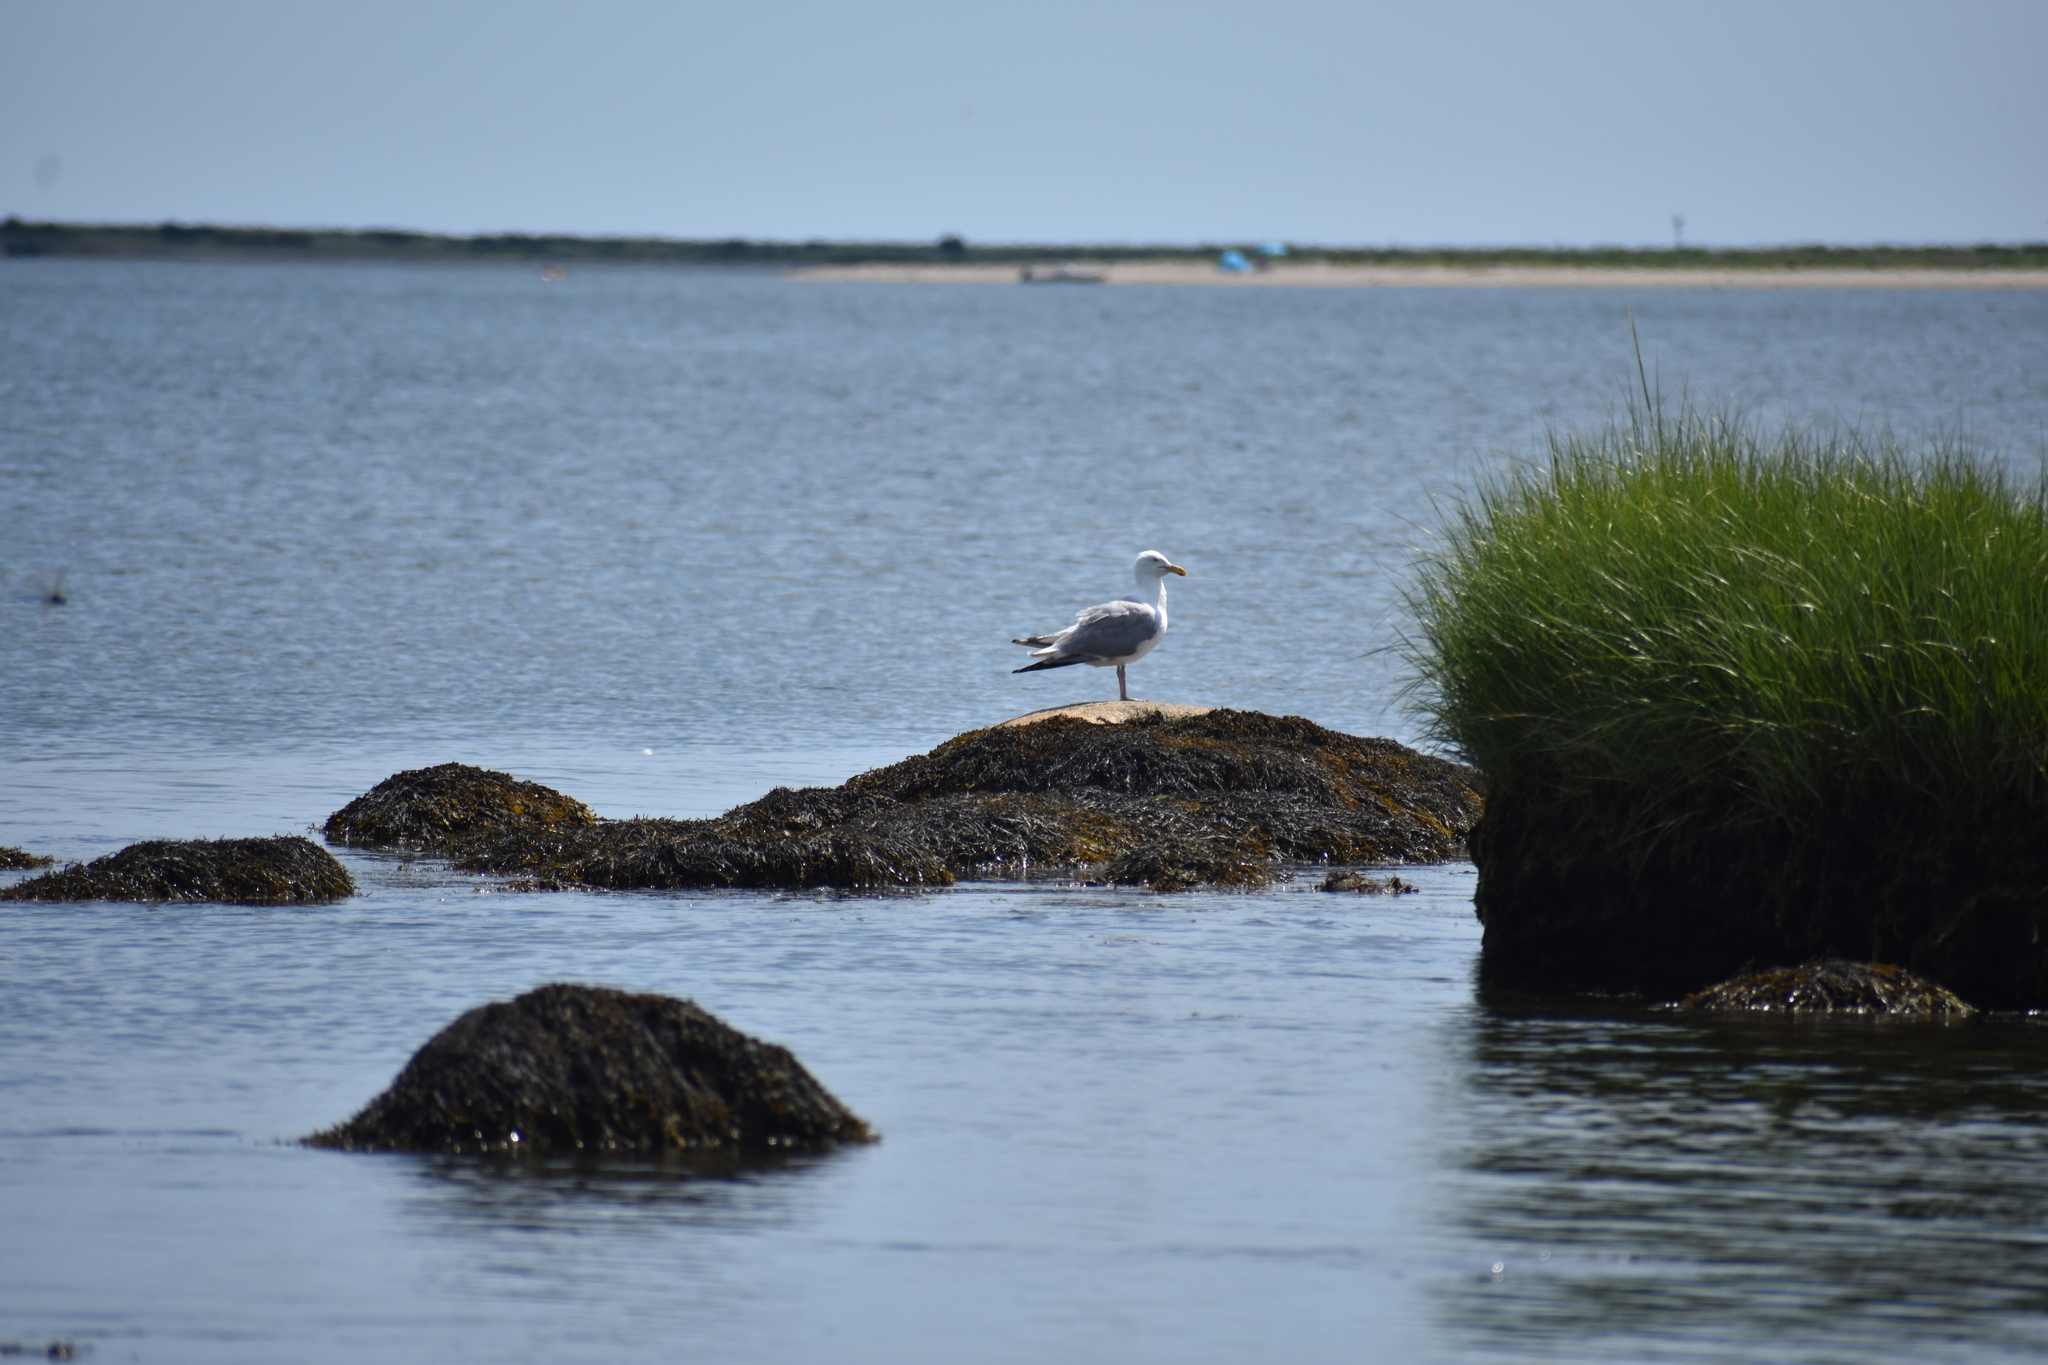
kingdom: Animalia
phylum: Chordata
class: Aves
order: Charadriiformes
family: Laridae
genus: Larus
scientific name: Larus argentatus
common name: Herring gull
